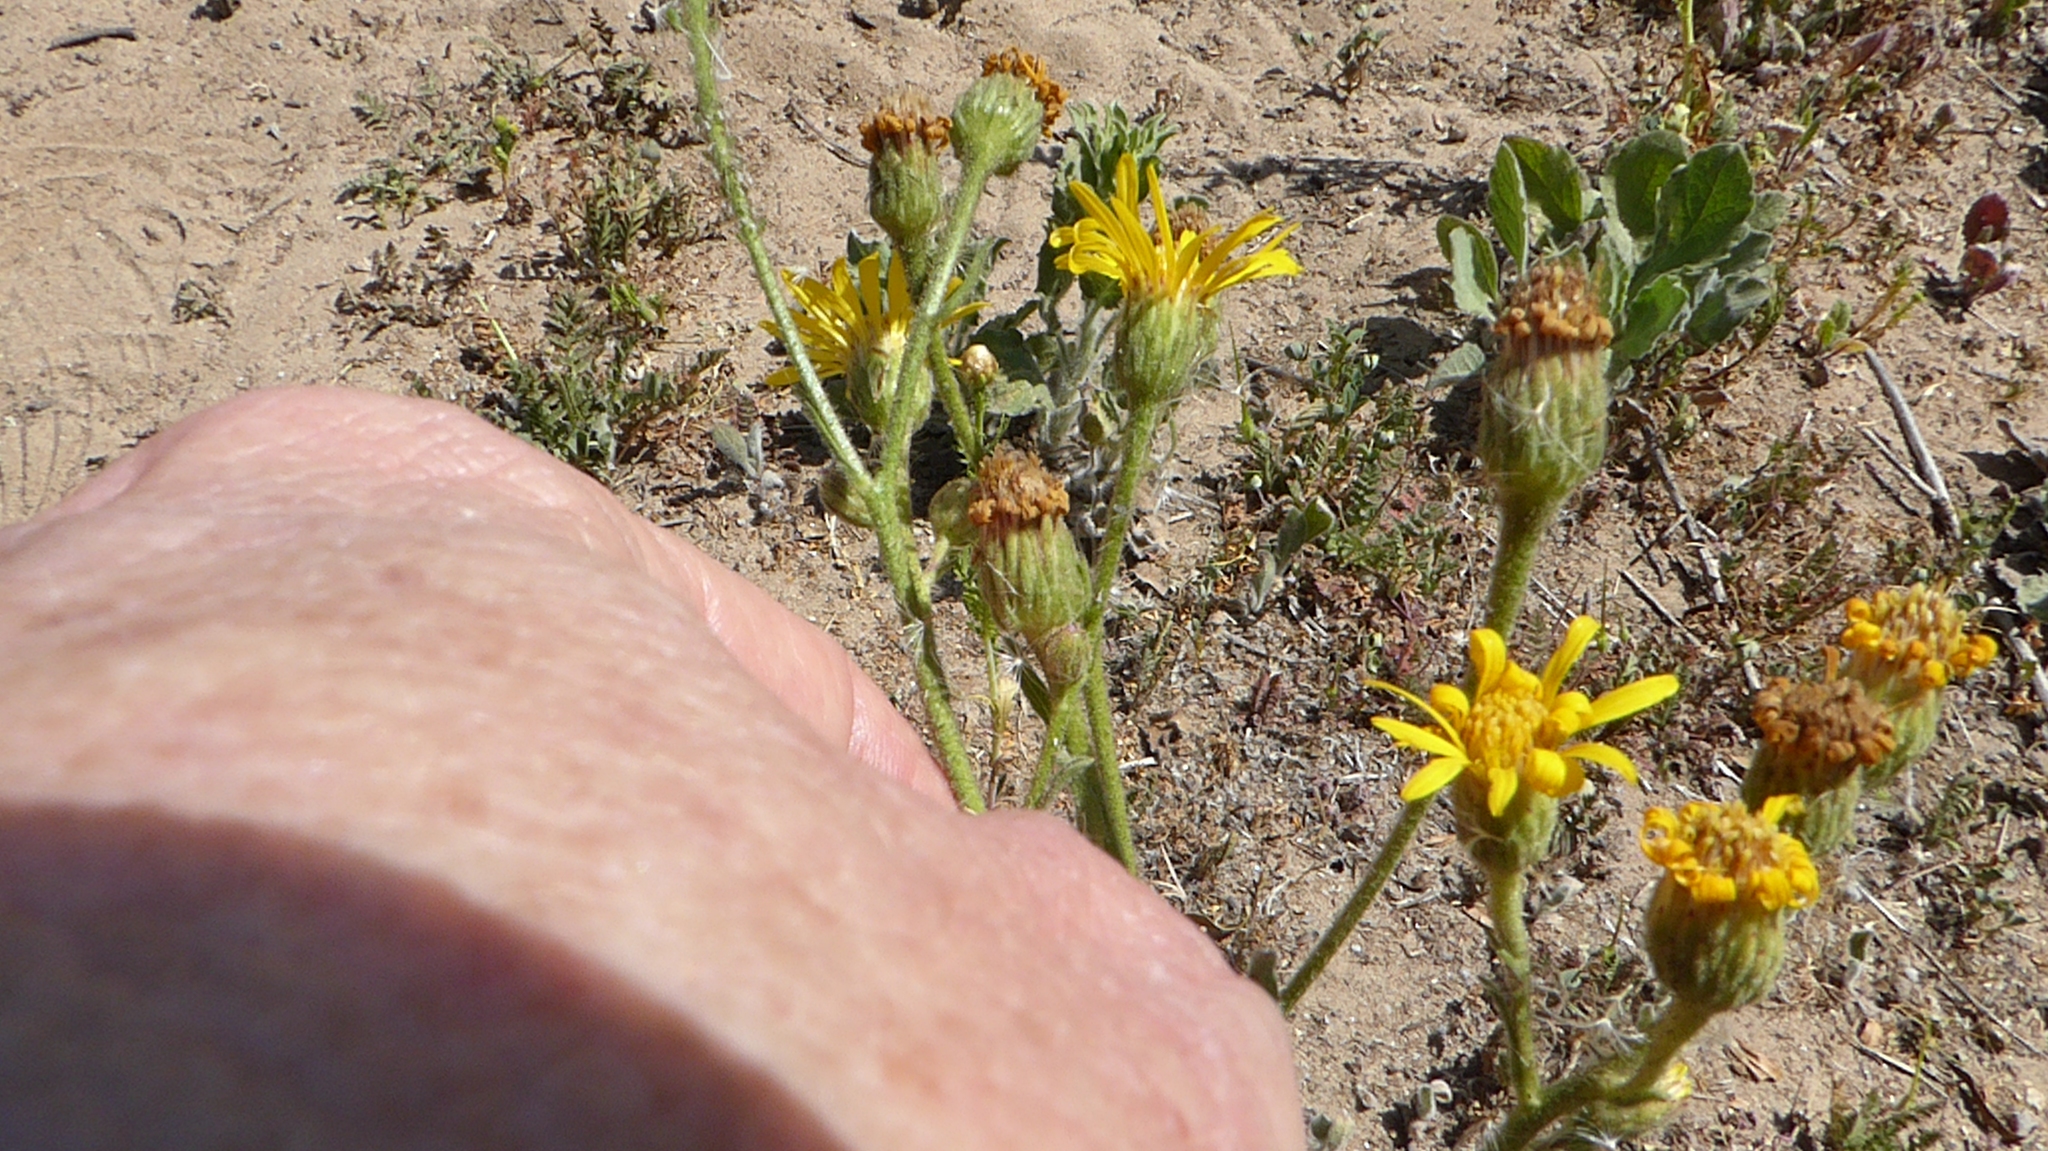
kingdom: Plantae
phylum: Tracheophyta
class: Magnoliopsida
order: Asterales
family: Asteraceae
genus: Heterotheca
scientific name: Heterotheca grandiflora
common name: Telegraphweed
